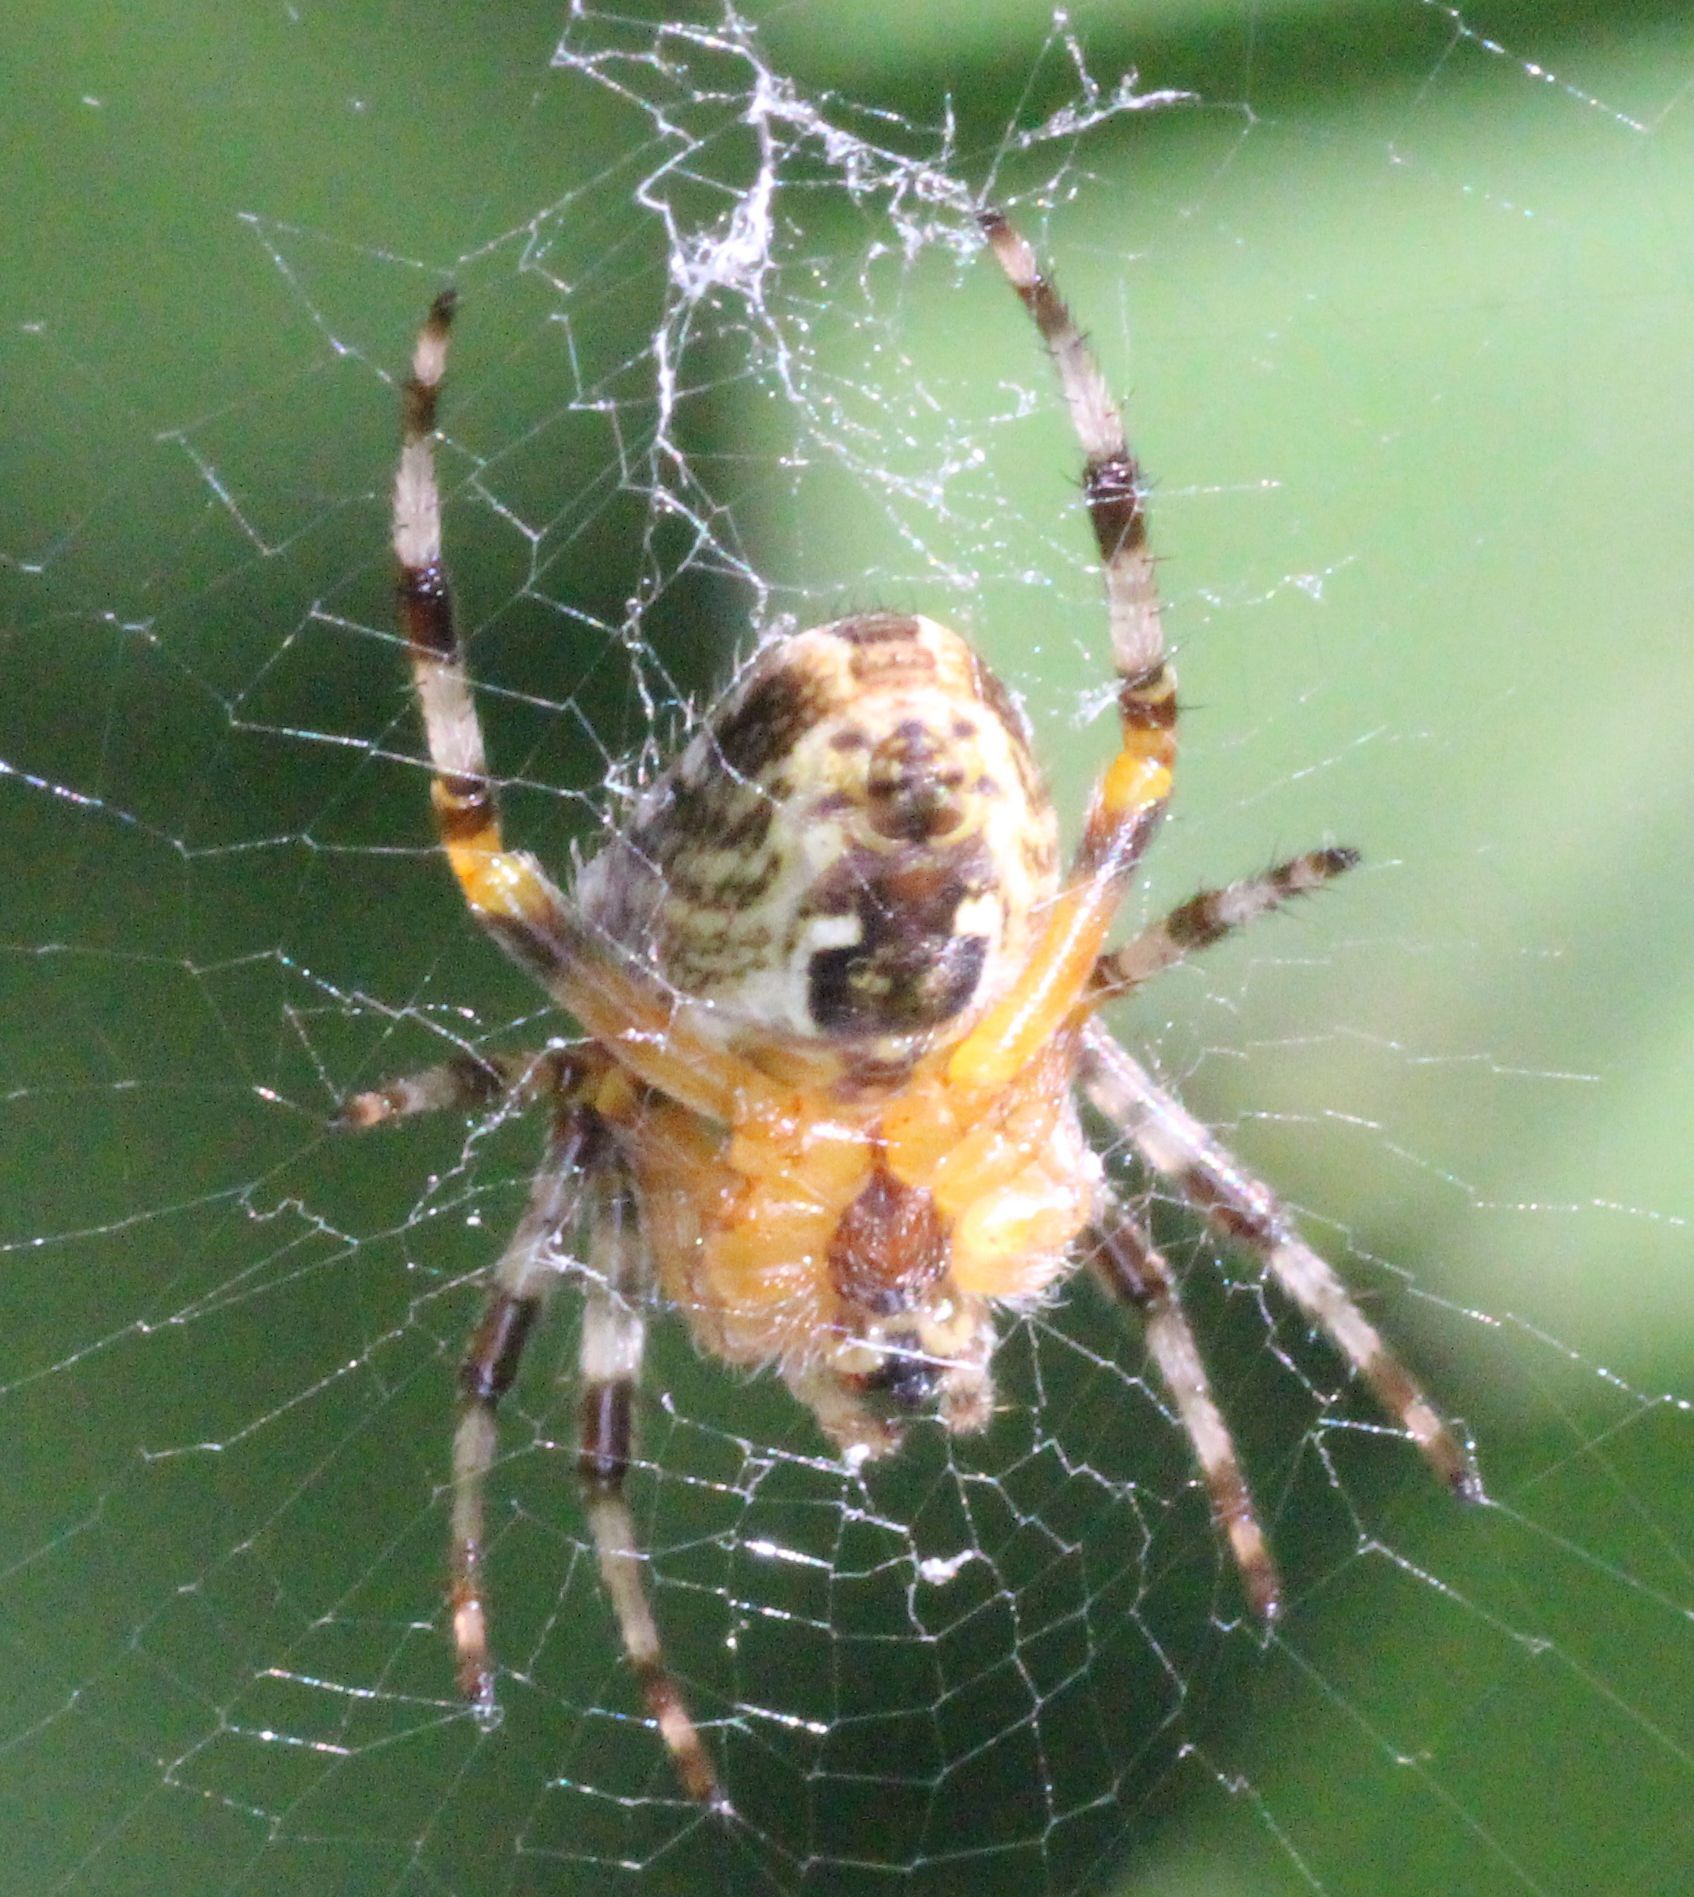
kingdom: Animalia
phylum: Arthropoda
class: Arachnida
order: Araneae
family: Araneidae
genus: Araneus
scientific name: Araneus diadematus
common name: Cross orbweaver
